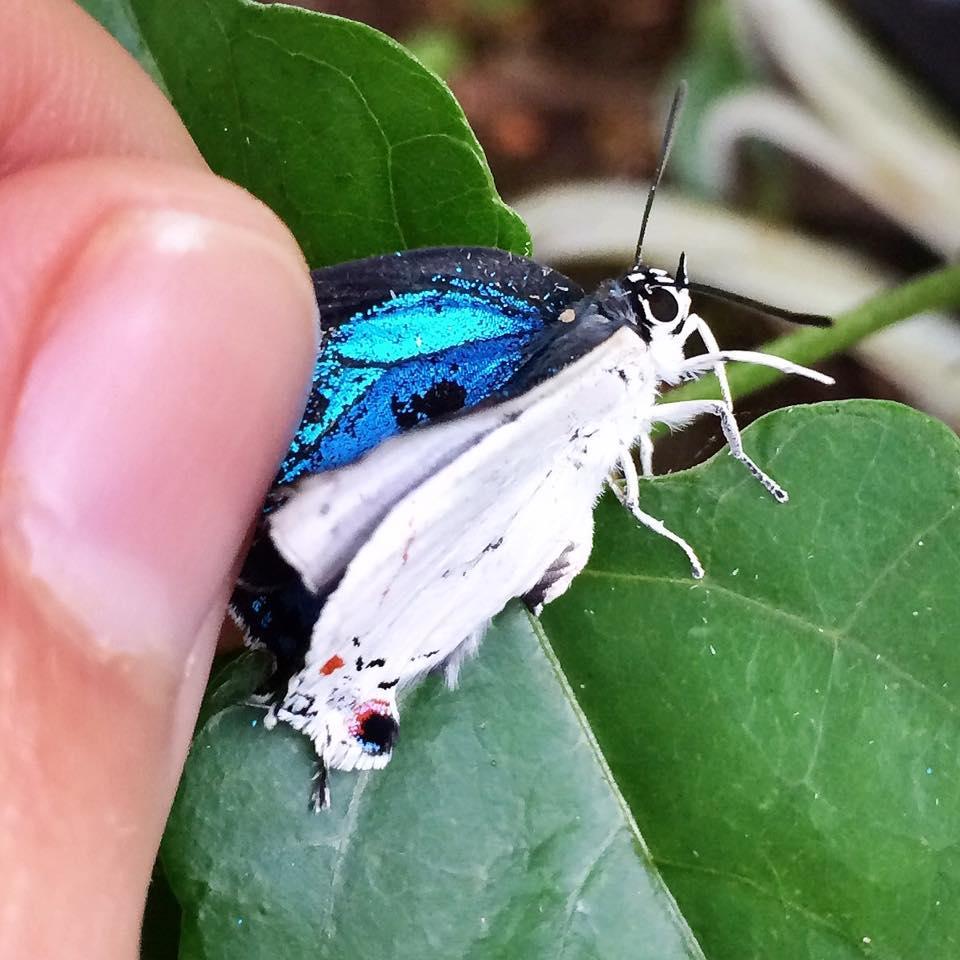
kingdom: Animalia
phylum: Arthropoda
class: Insecta
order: Lepidoptera
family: Lycaenidae
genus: Argiolaus
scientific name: Argiolaus silas
